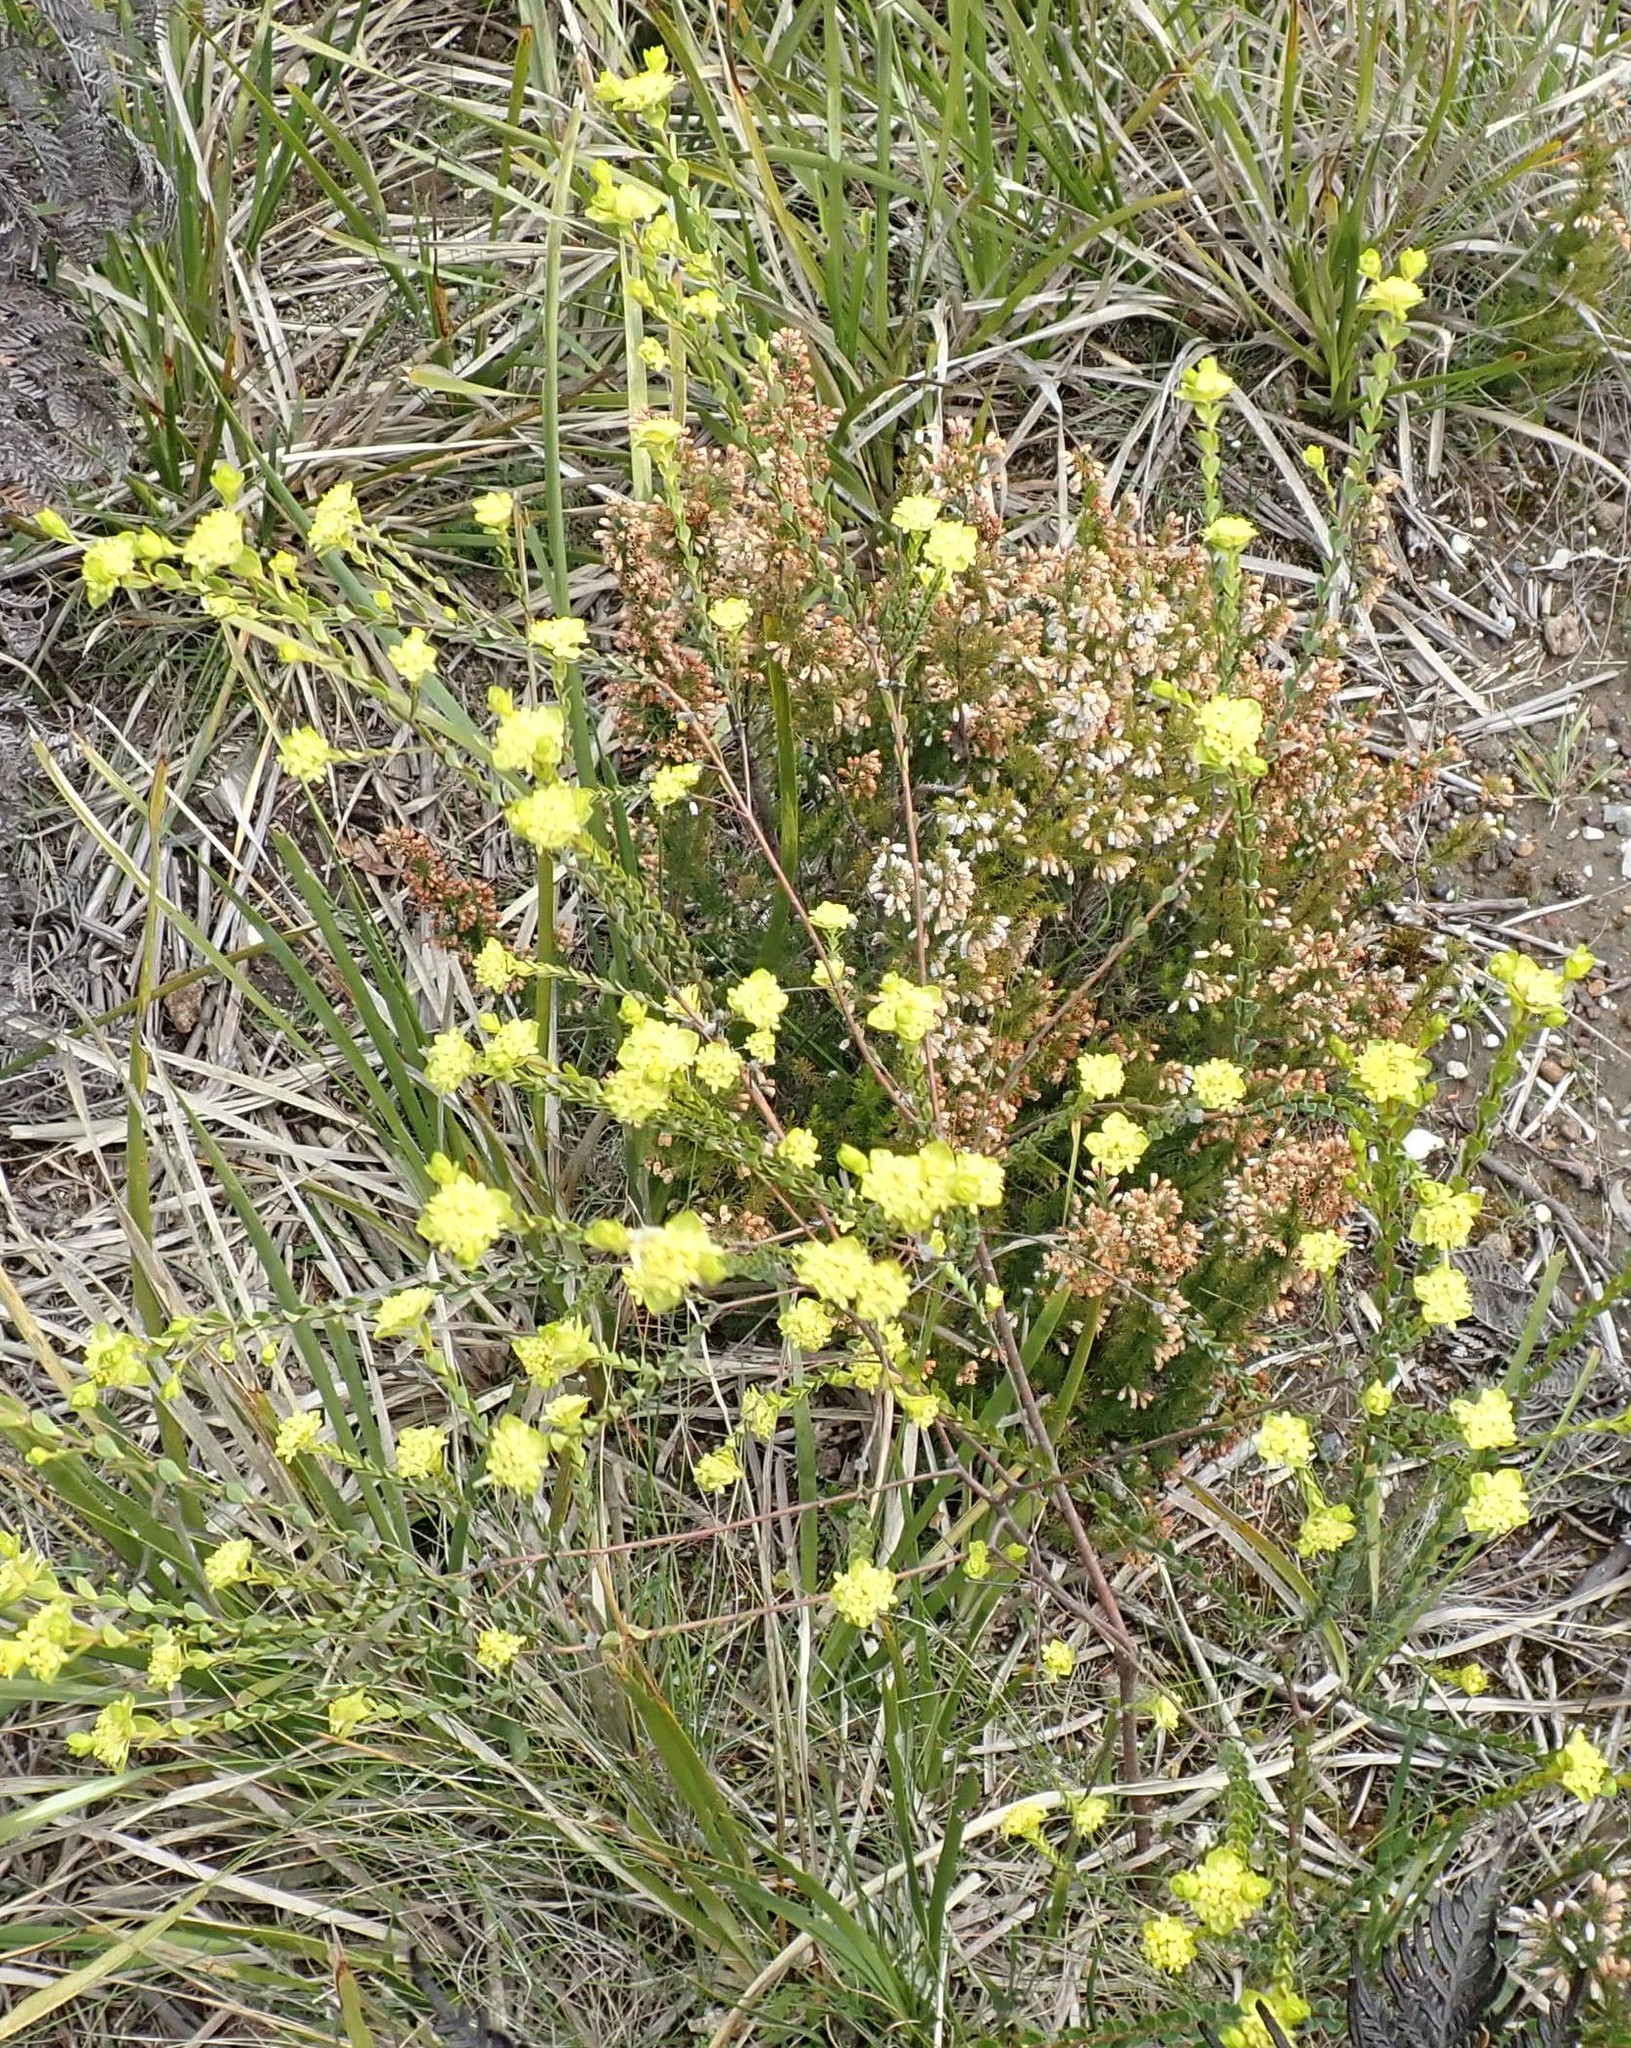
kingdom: Plantae
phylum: Tracheophyta
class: Magnoliopsida
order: Malvales
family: Thymelaeaceae
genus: Pimelea
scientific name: Pimelea flava
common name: Yellow riceflower
